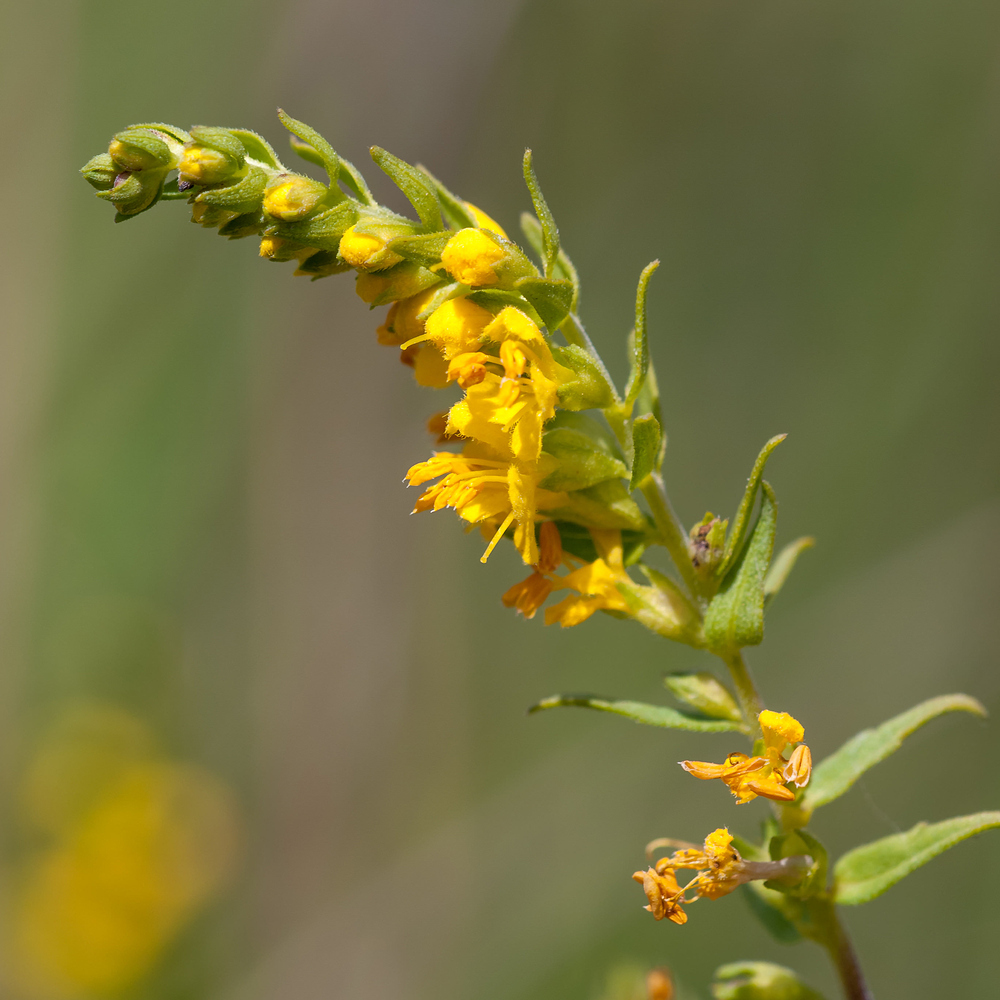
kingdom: Plantae
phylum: Tracheophyta
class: Magnoliopsida
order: Lamiales
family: Orobanchaceae
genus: Odontites
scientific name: Odontites luteus
